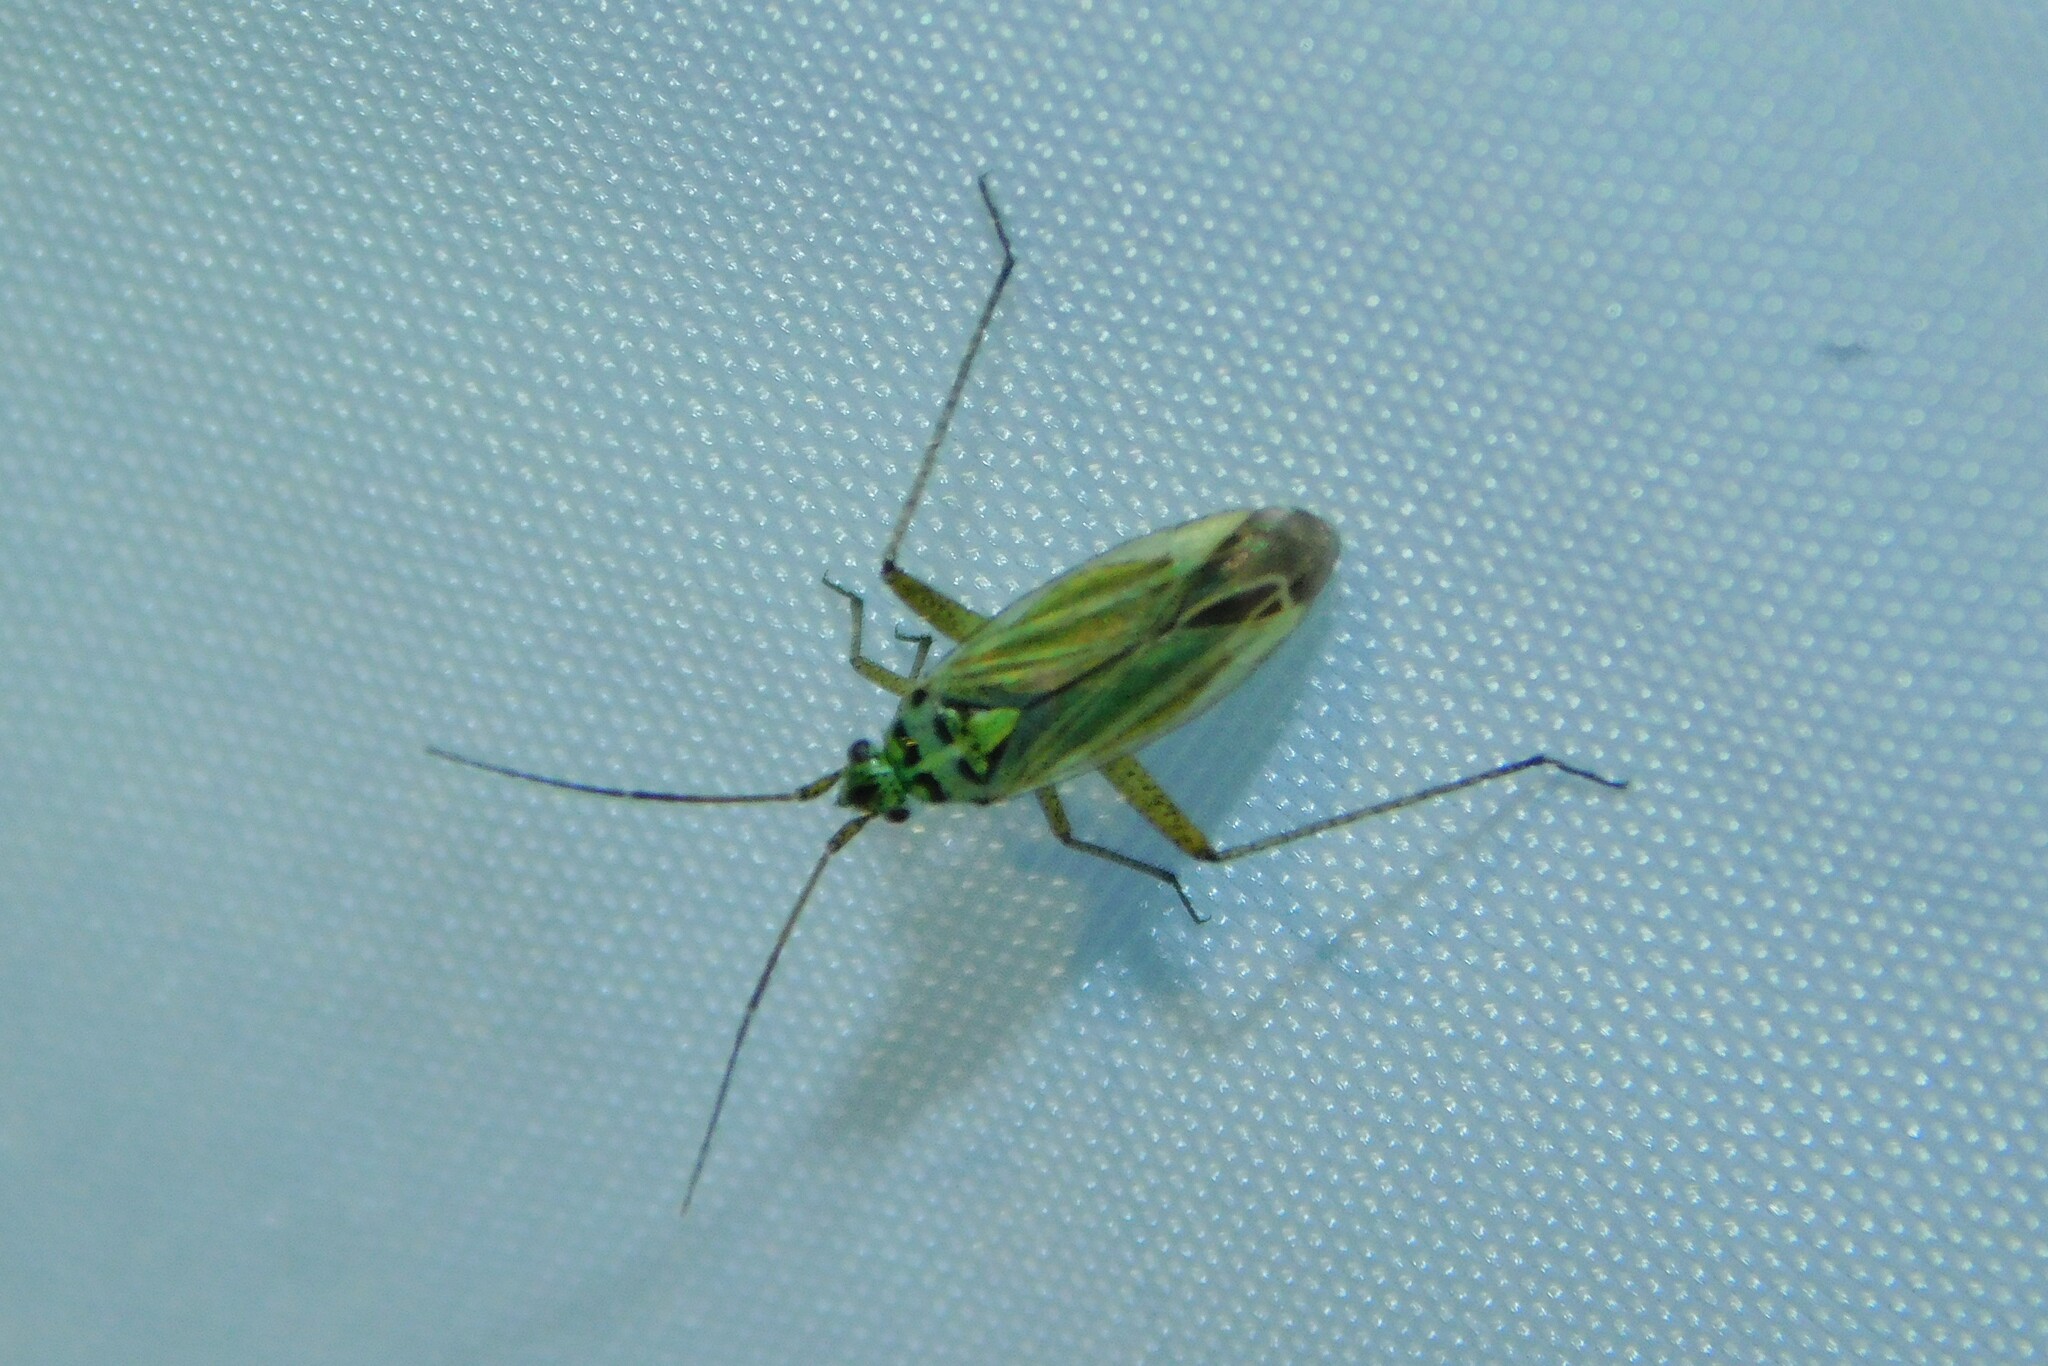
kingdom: Animalia
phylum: Arthropoda
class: Insecta
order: Hemiptera
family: Miridae
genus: Oncotylus
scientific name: Oncotylus viridiflavus
